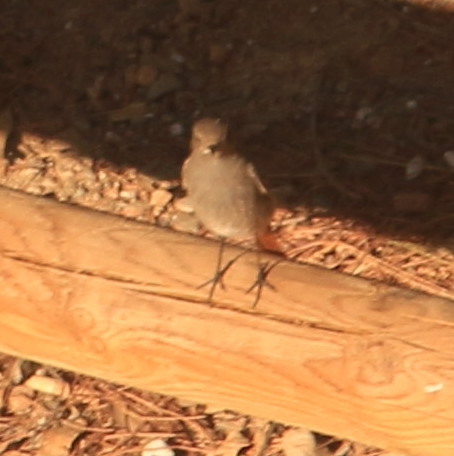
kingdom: Animalia
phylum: Chordata
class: Aves
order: Passeriformes
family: Muscicapidae
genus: Phoenicurus
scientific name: Phoenicurus ochruros
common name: Black redstart
